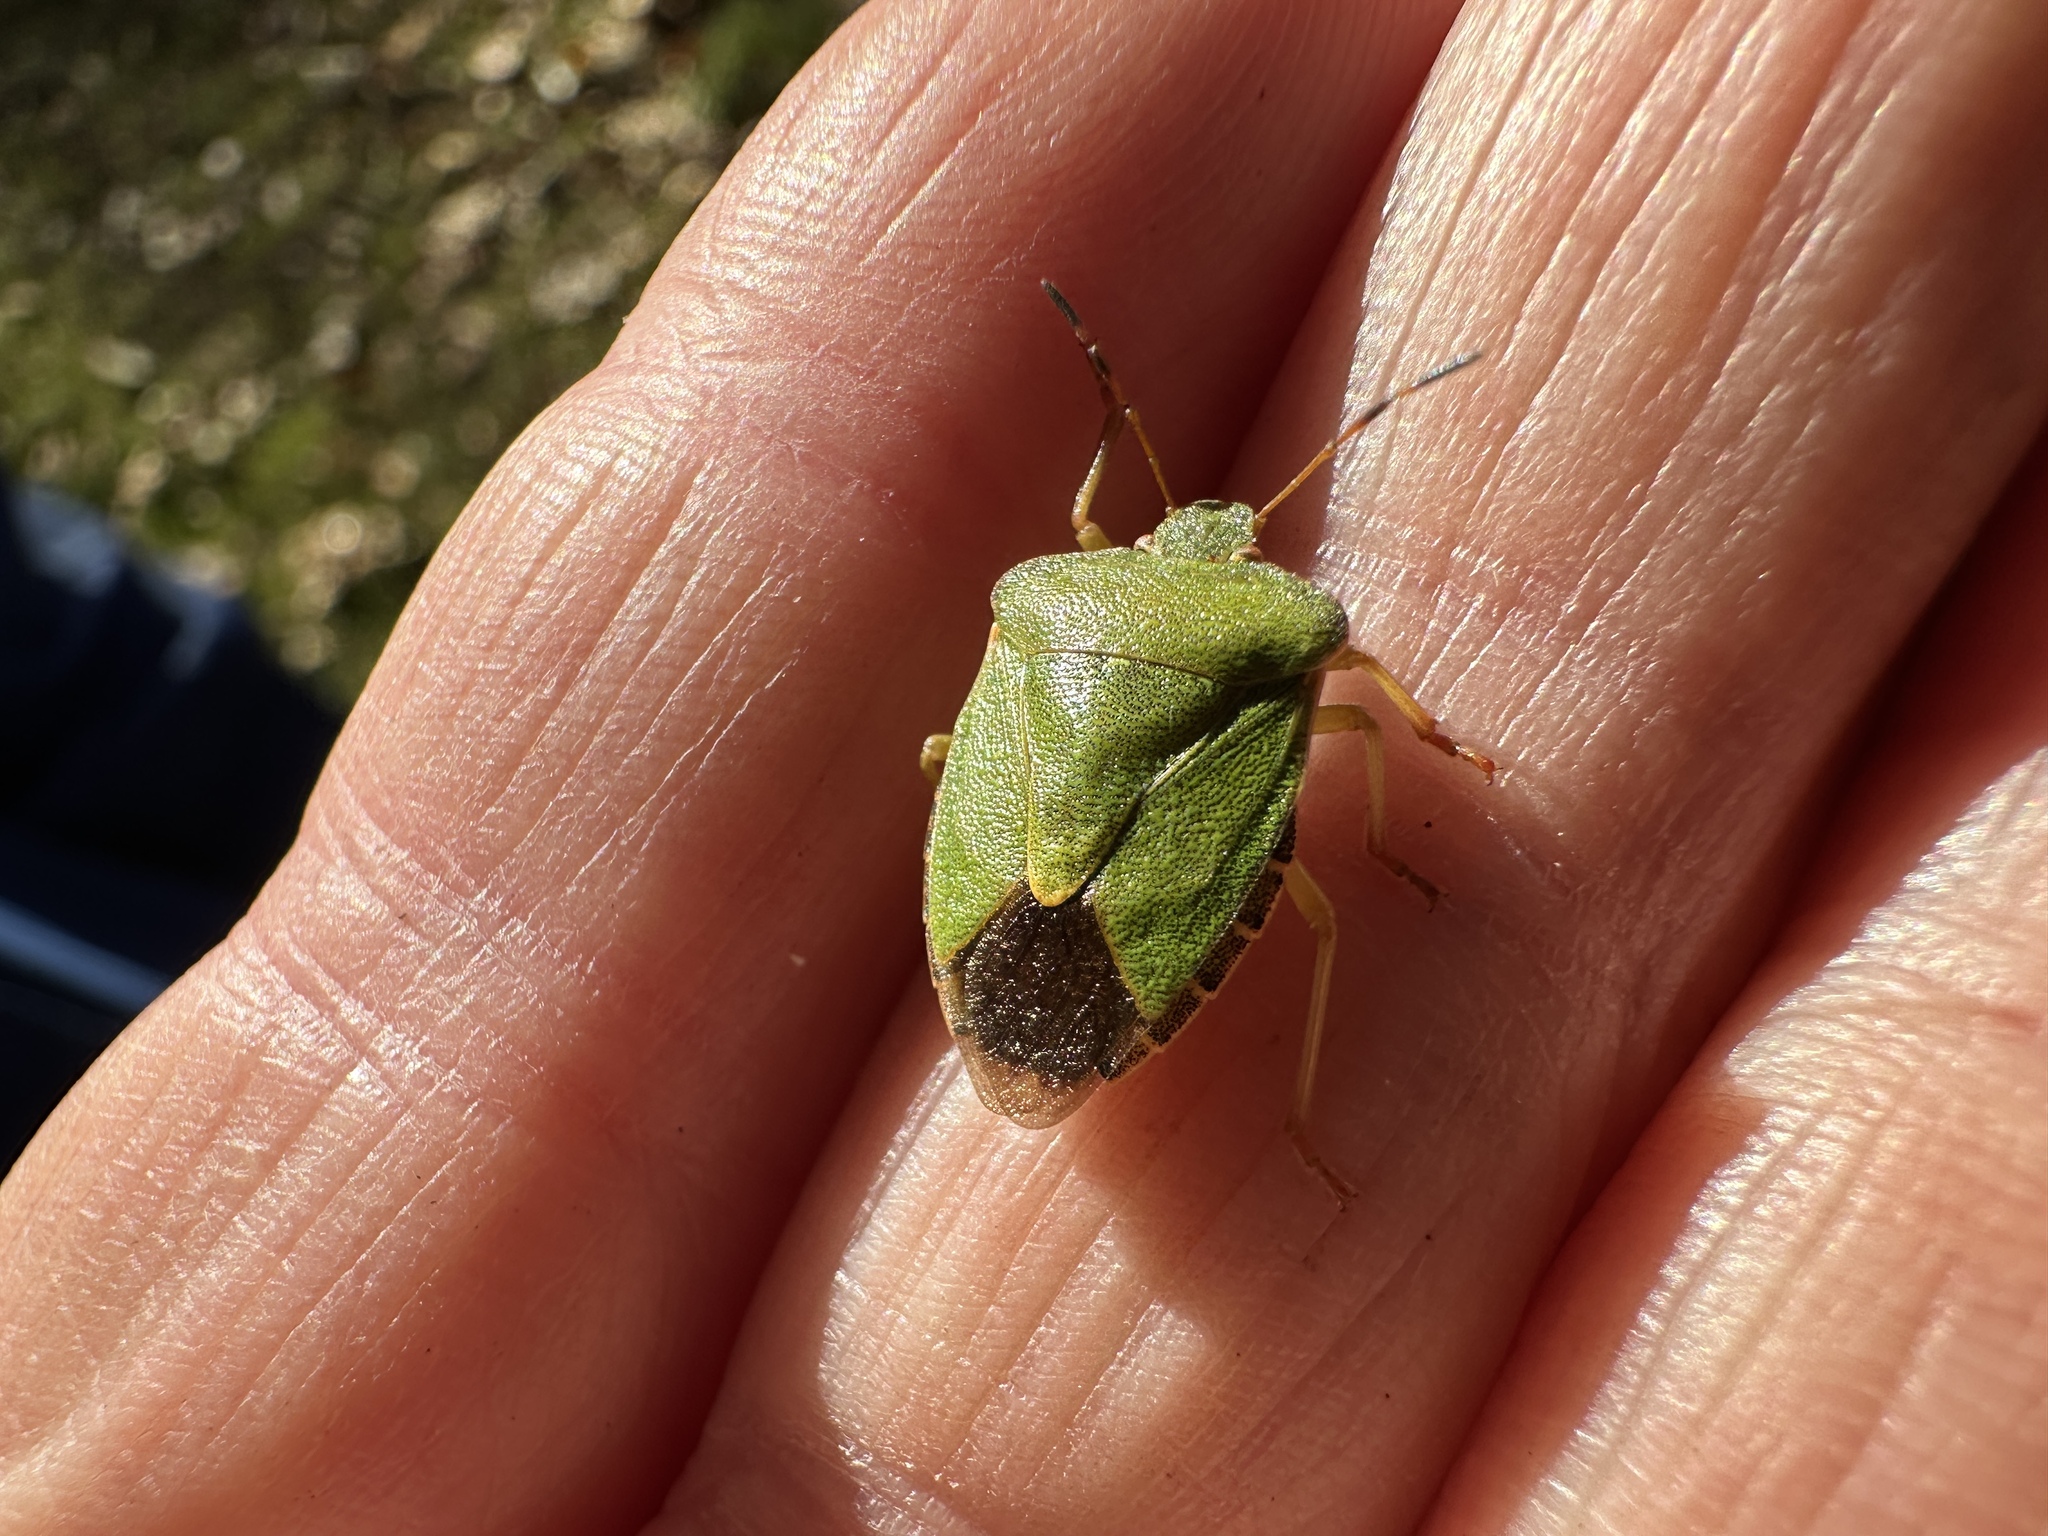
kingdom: Animalia
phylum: Arthropoda
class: Insecta
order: Hemiptera
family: Pentatomidae
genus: Palomena
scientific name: Palomena prasina
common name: Green shieldbug
